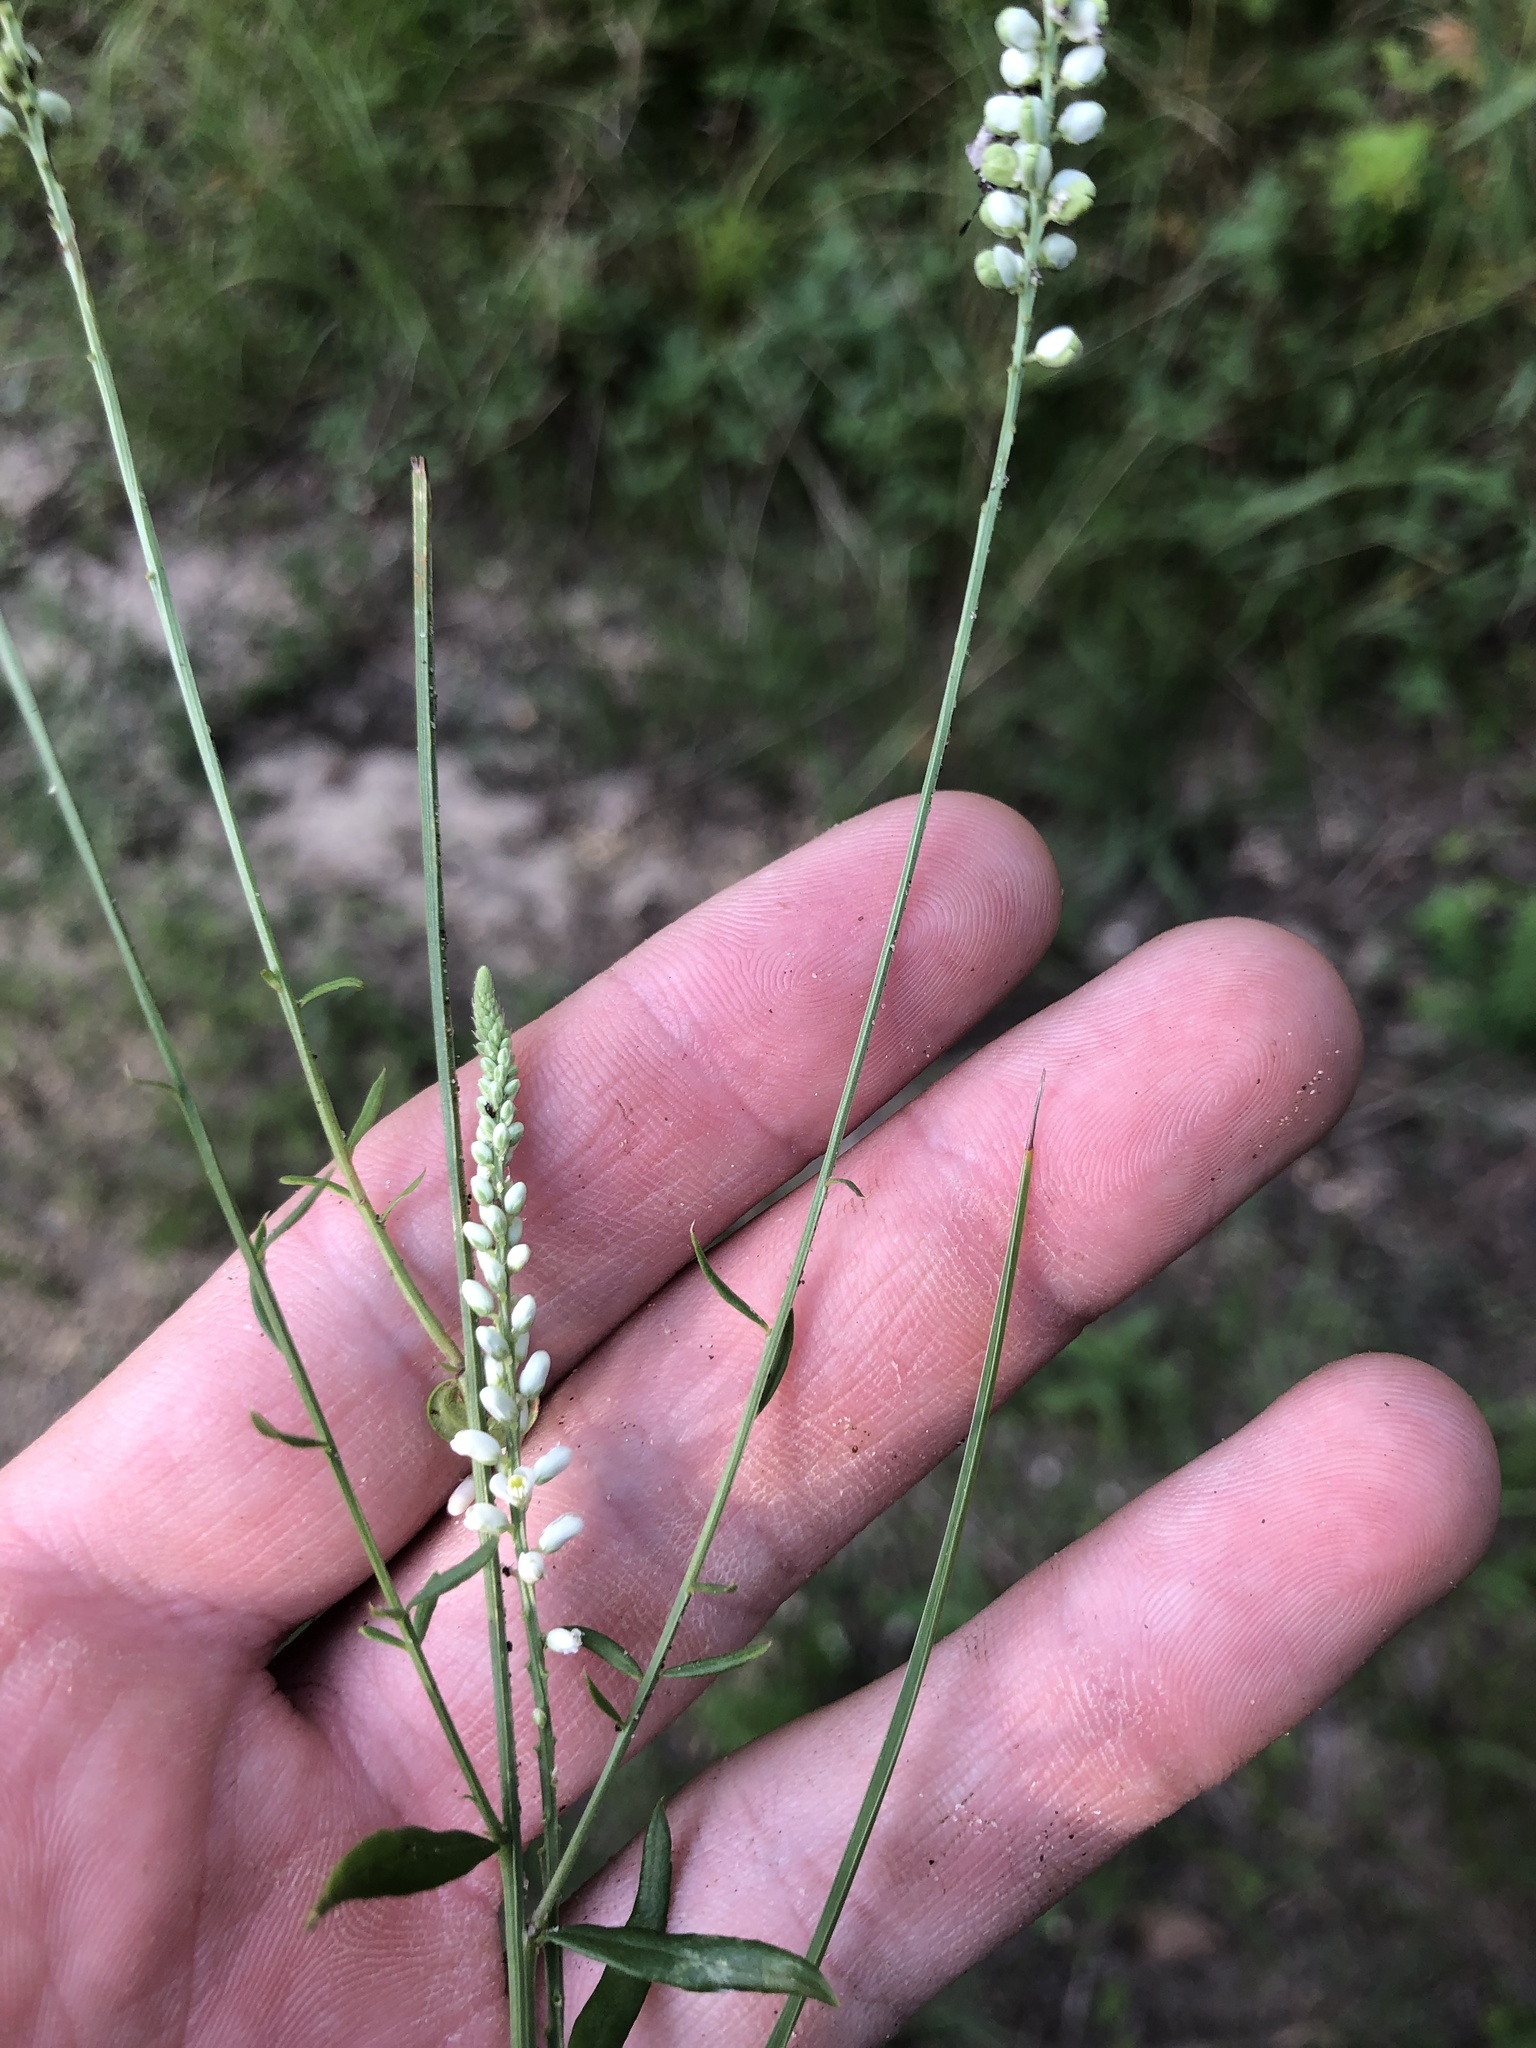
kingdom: Plantae
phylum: Tracheophyta
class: Magnoliopsida
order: Fabales
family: Polygalaceae
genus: Polygala
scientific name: Polygala boykinii
